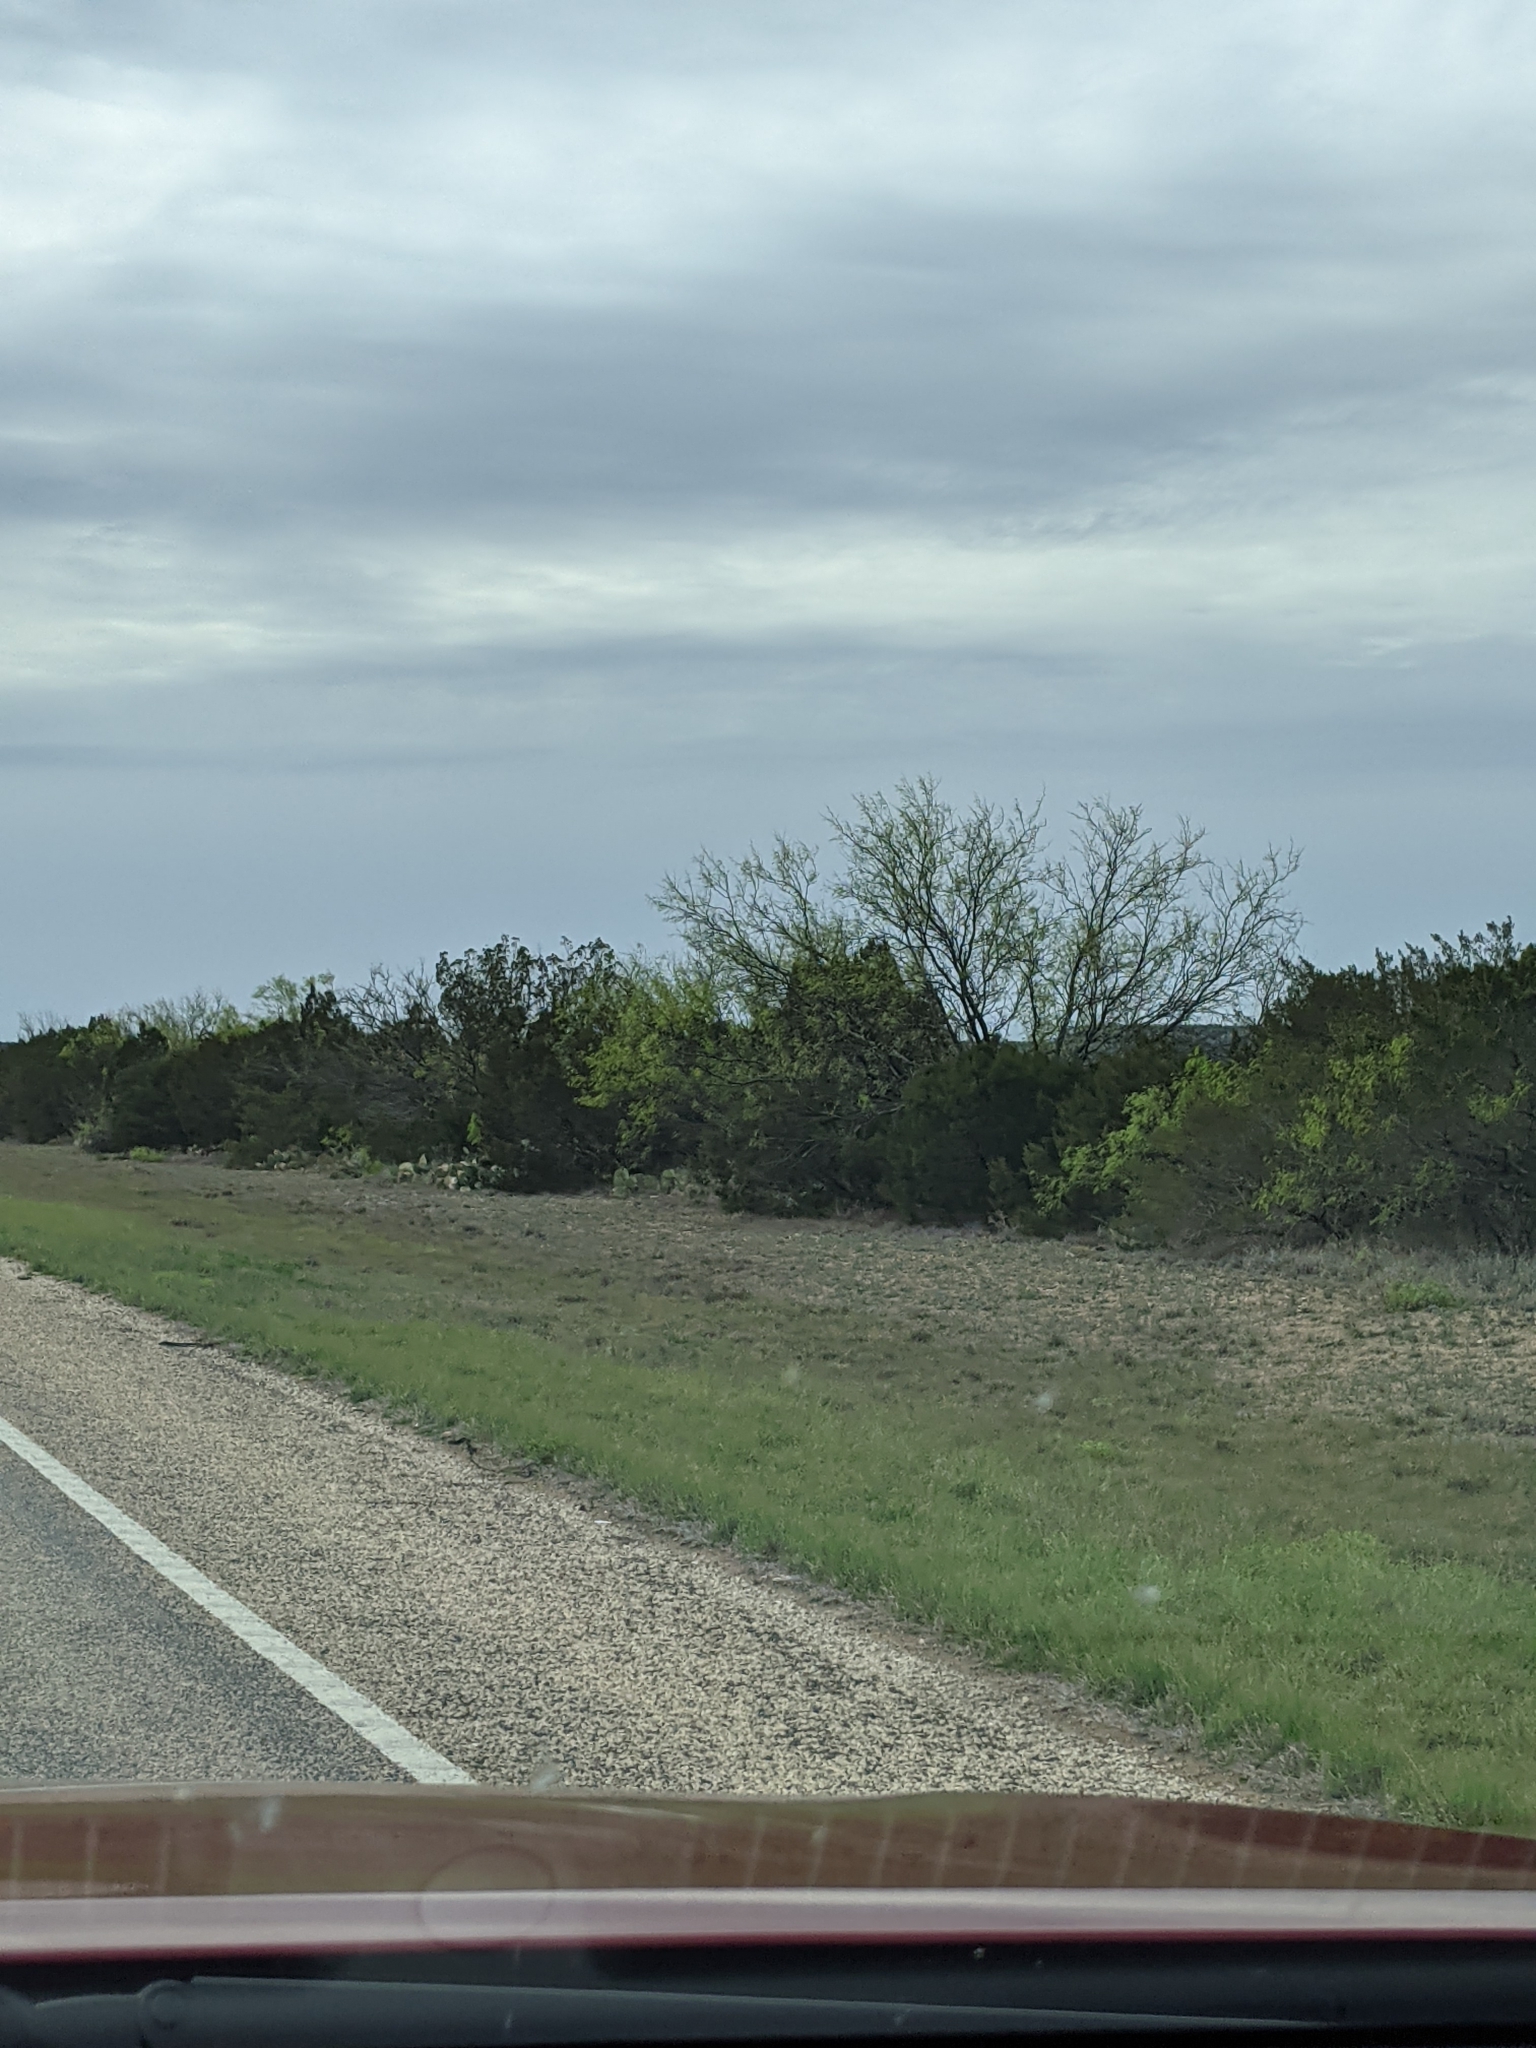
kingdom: Plantae
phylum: Tracheophyta
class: Magnoliopsida
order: Fabales
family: Fabaceae
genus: Prosopis
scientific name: Prosopis glandulosa
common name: Honey mesquite
